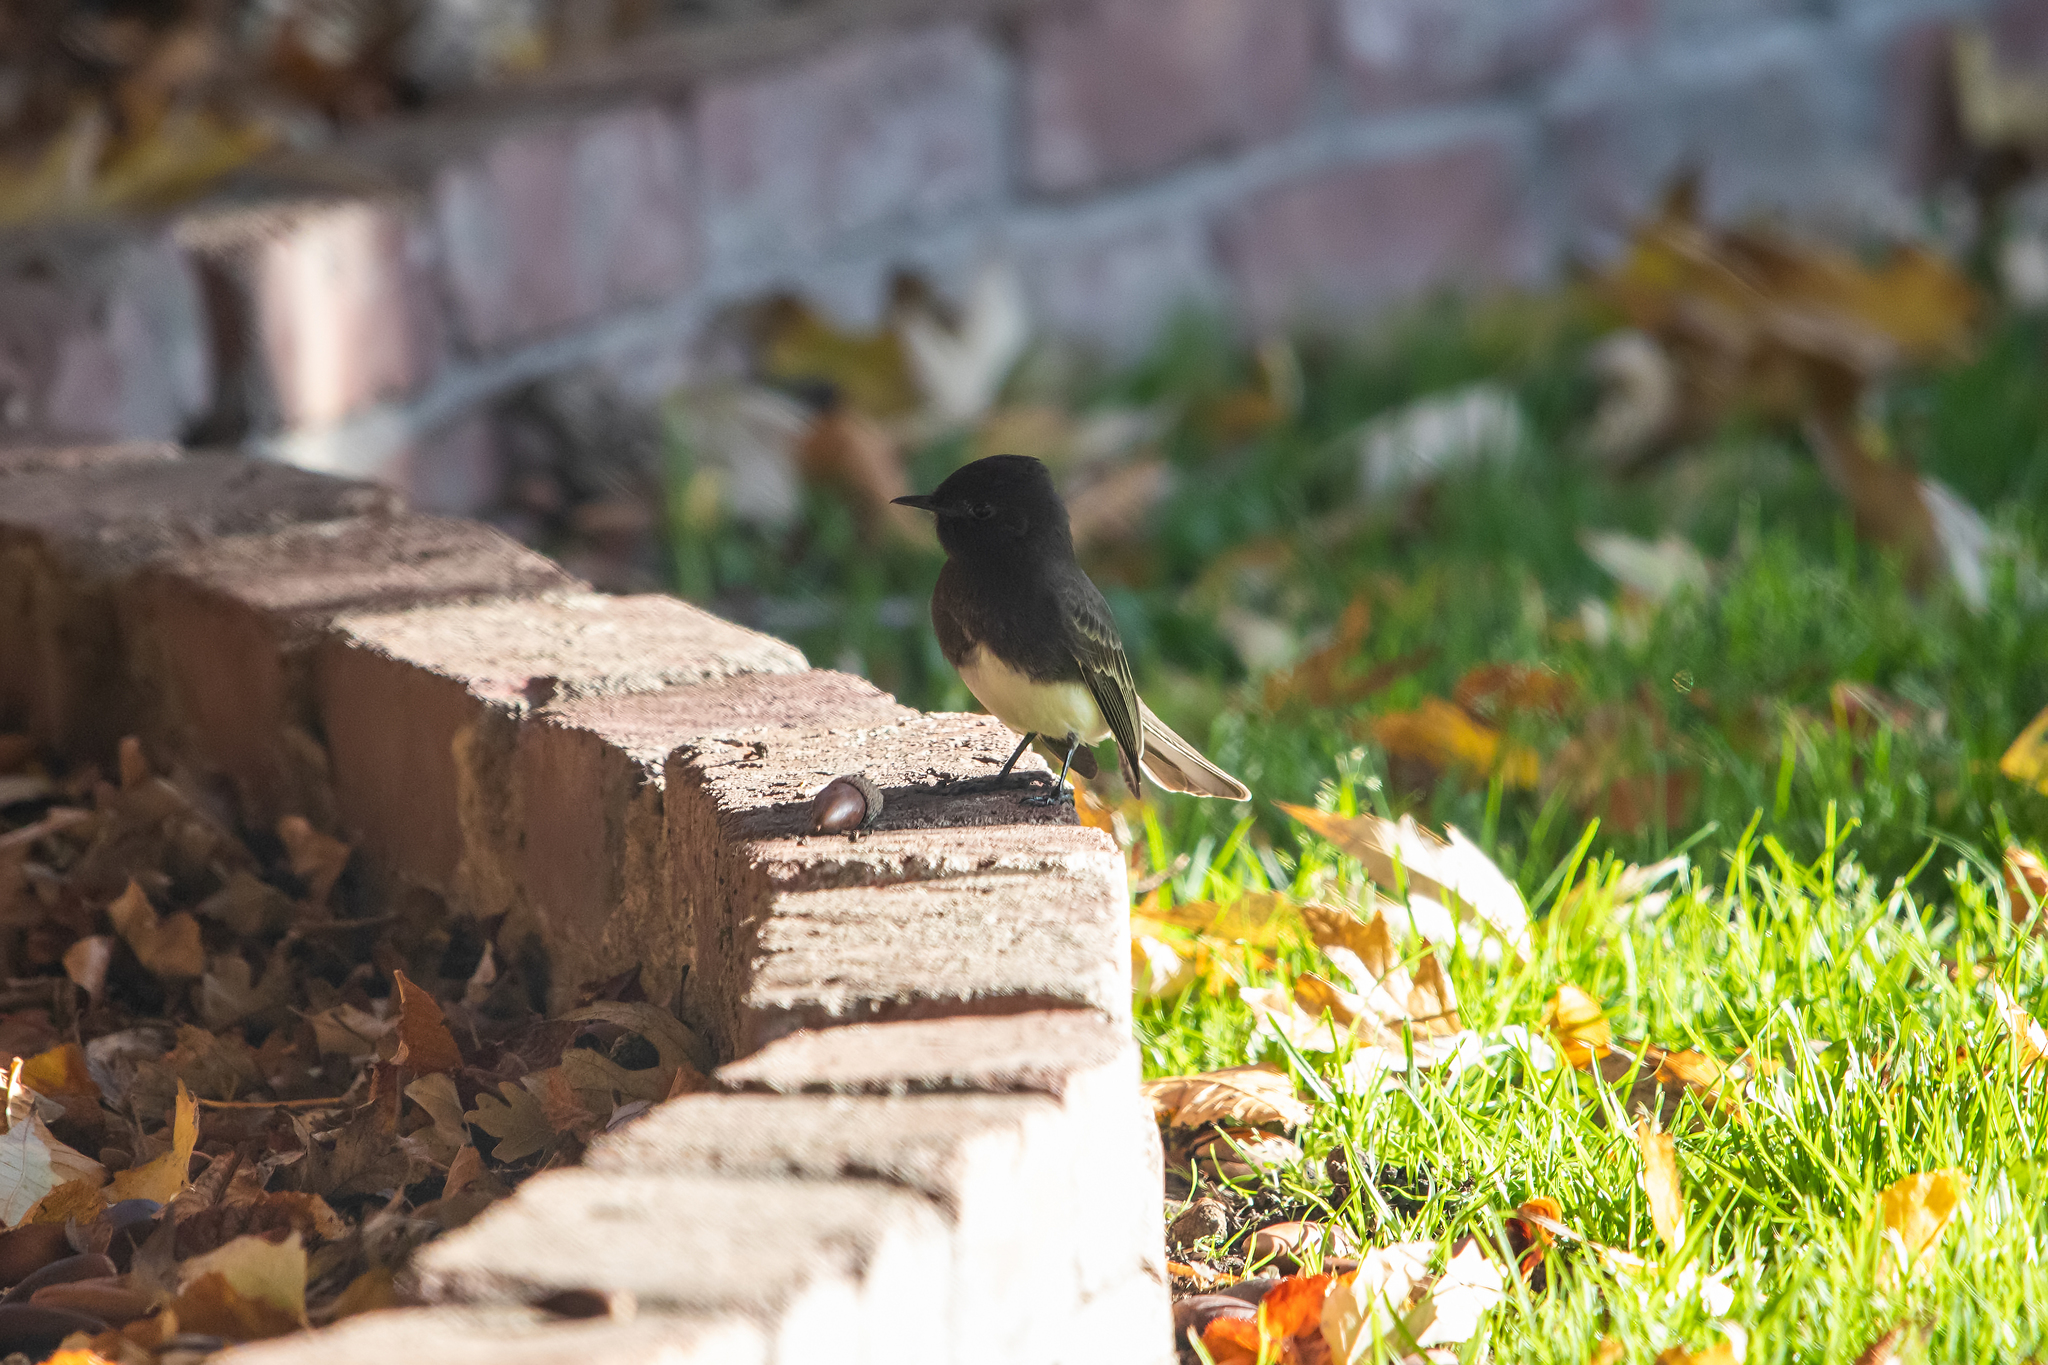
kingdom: Animalia
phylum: Chordata
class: Aves
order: Passeriformes
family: Tyrannidae
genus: Sayornis
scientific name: Sayornis nigricans
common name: Black phoebe
